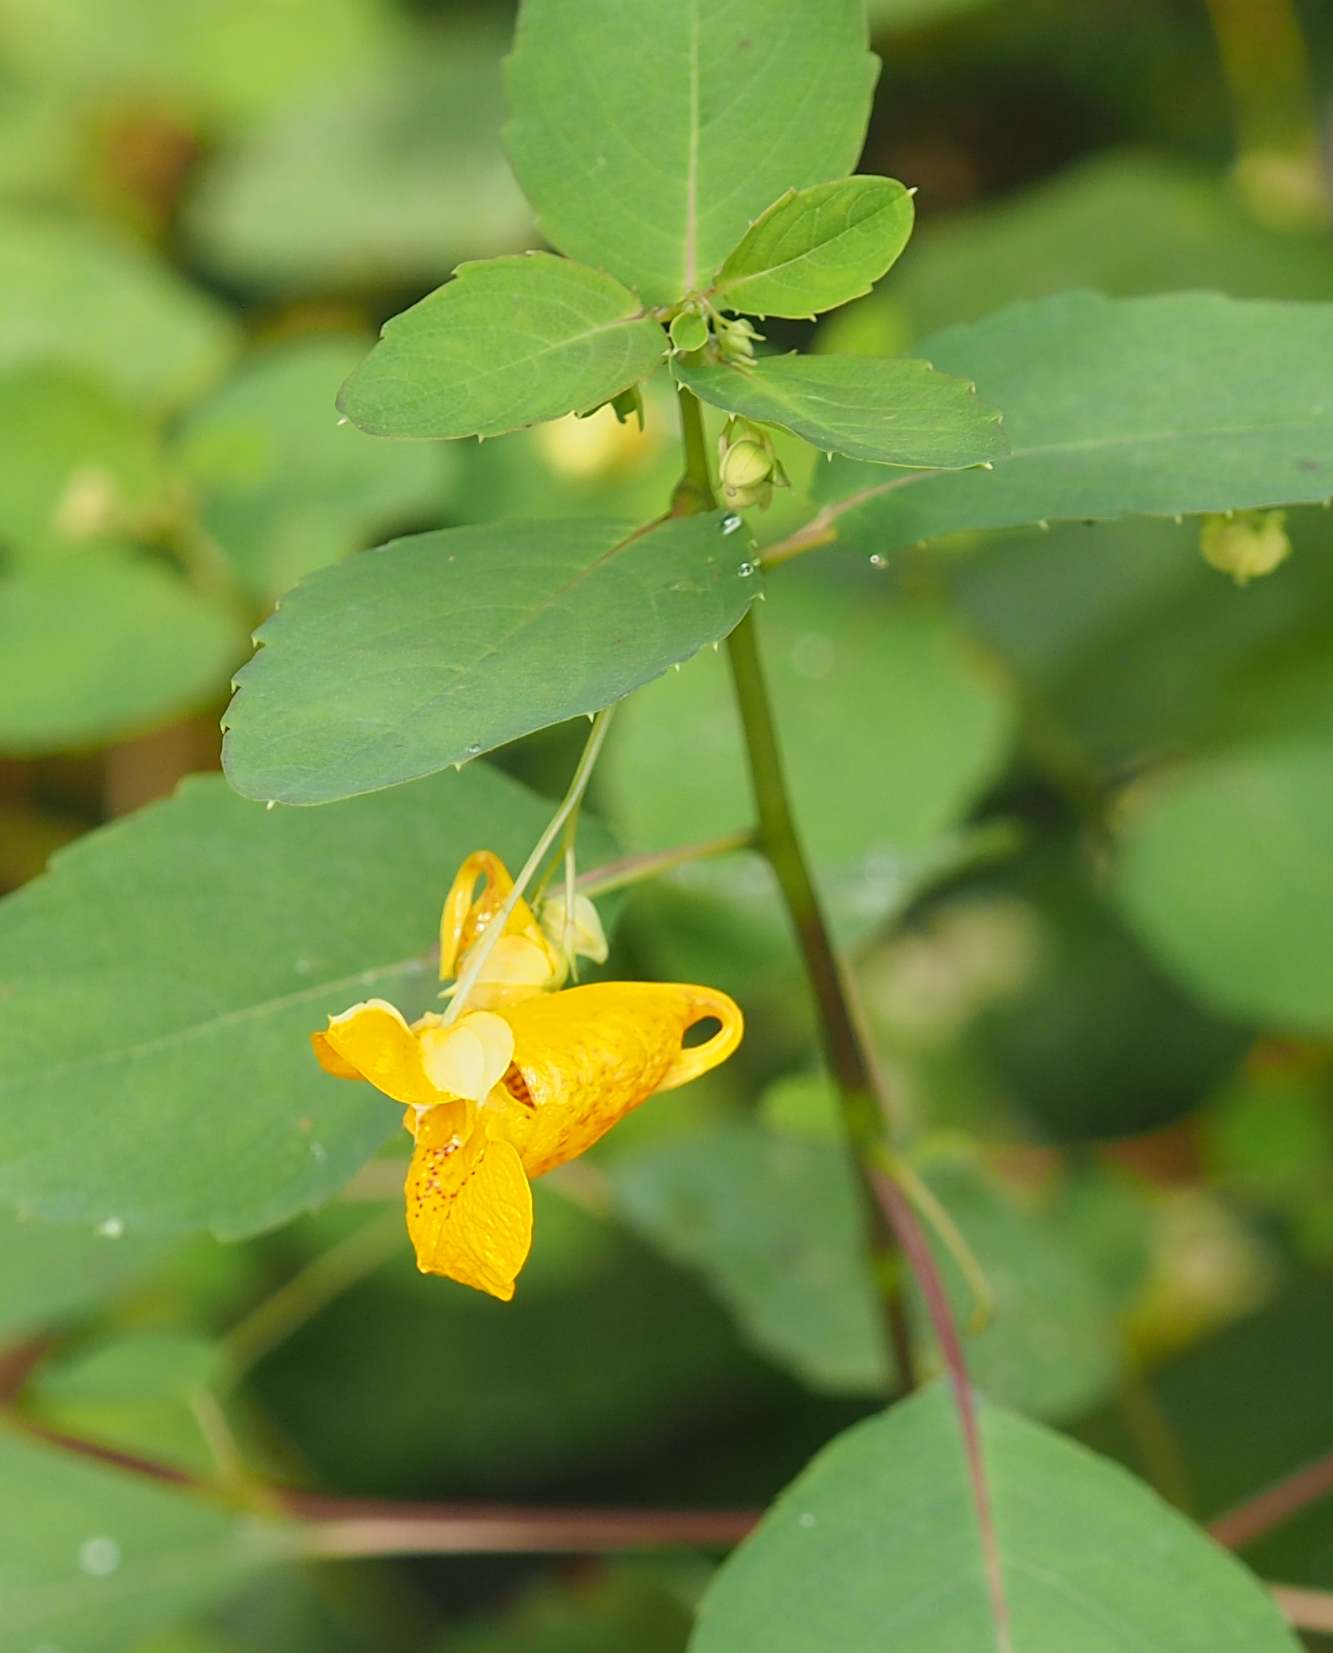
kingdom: Plantae
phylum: Tracheophyta
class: Magnoliopsida
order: Ericales
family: Balsaminaceae
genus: Impatiens
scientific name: Impatiens capensis
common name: Orange balsam
